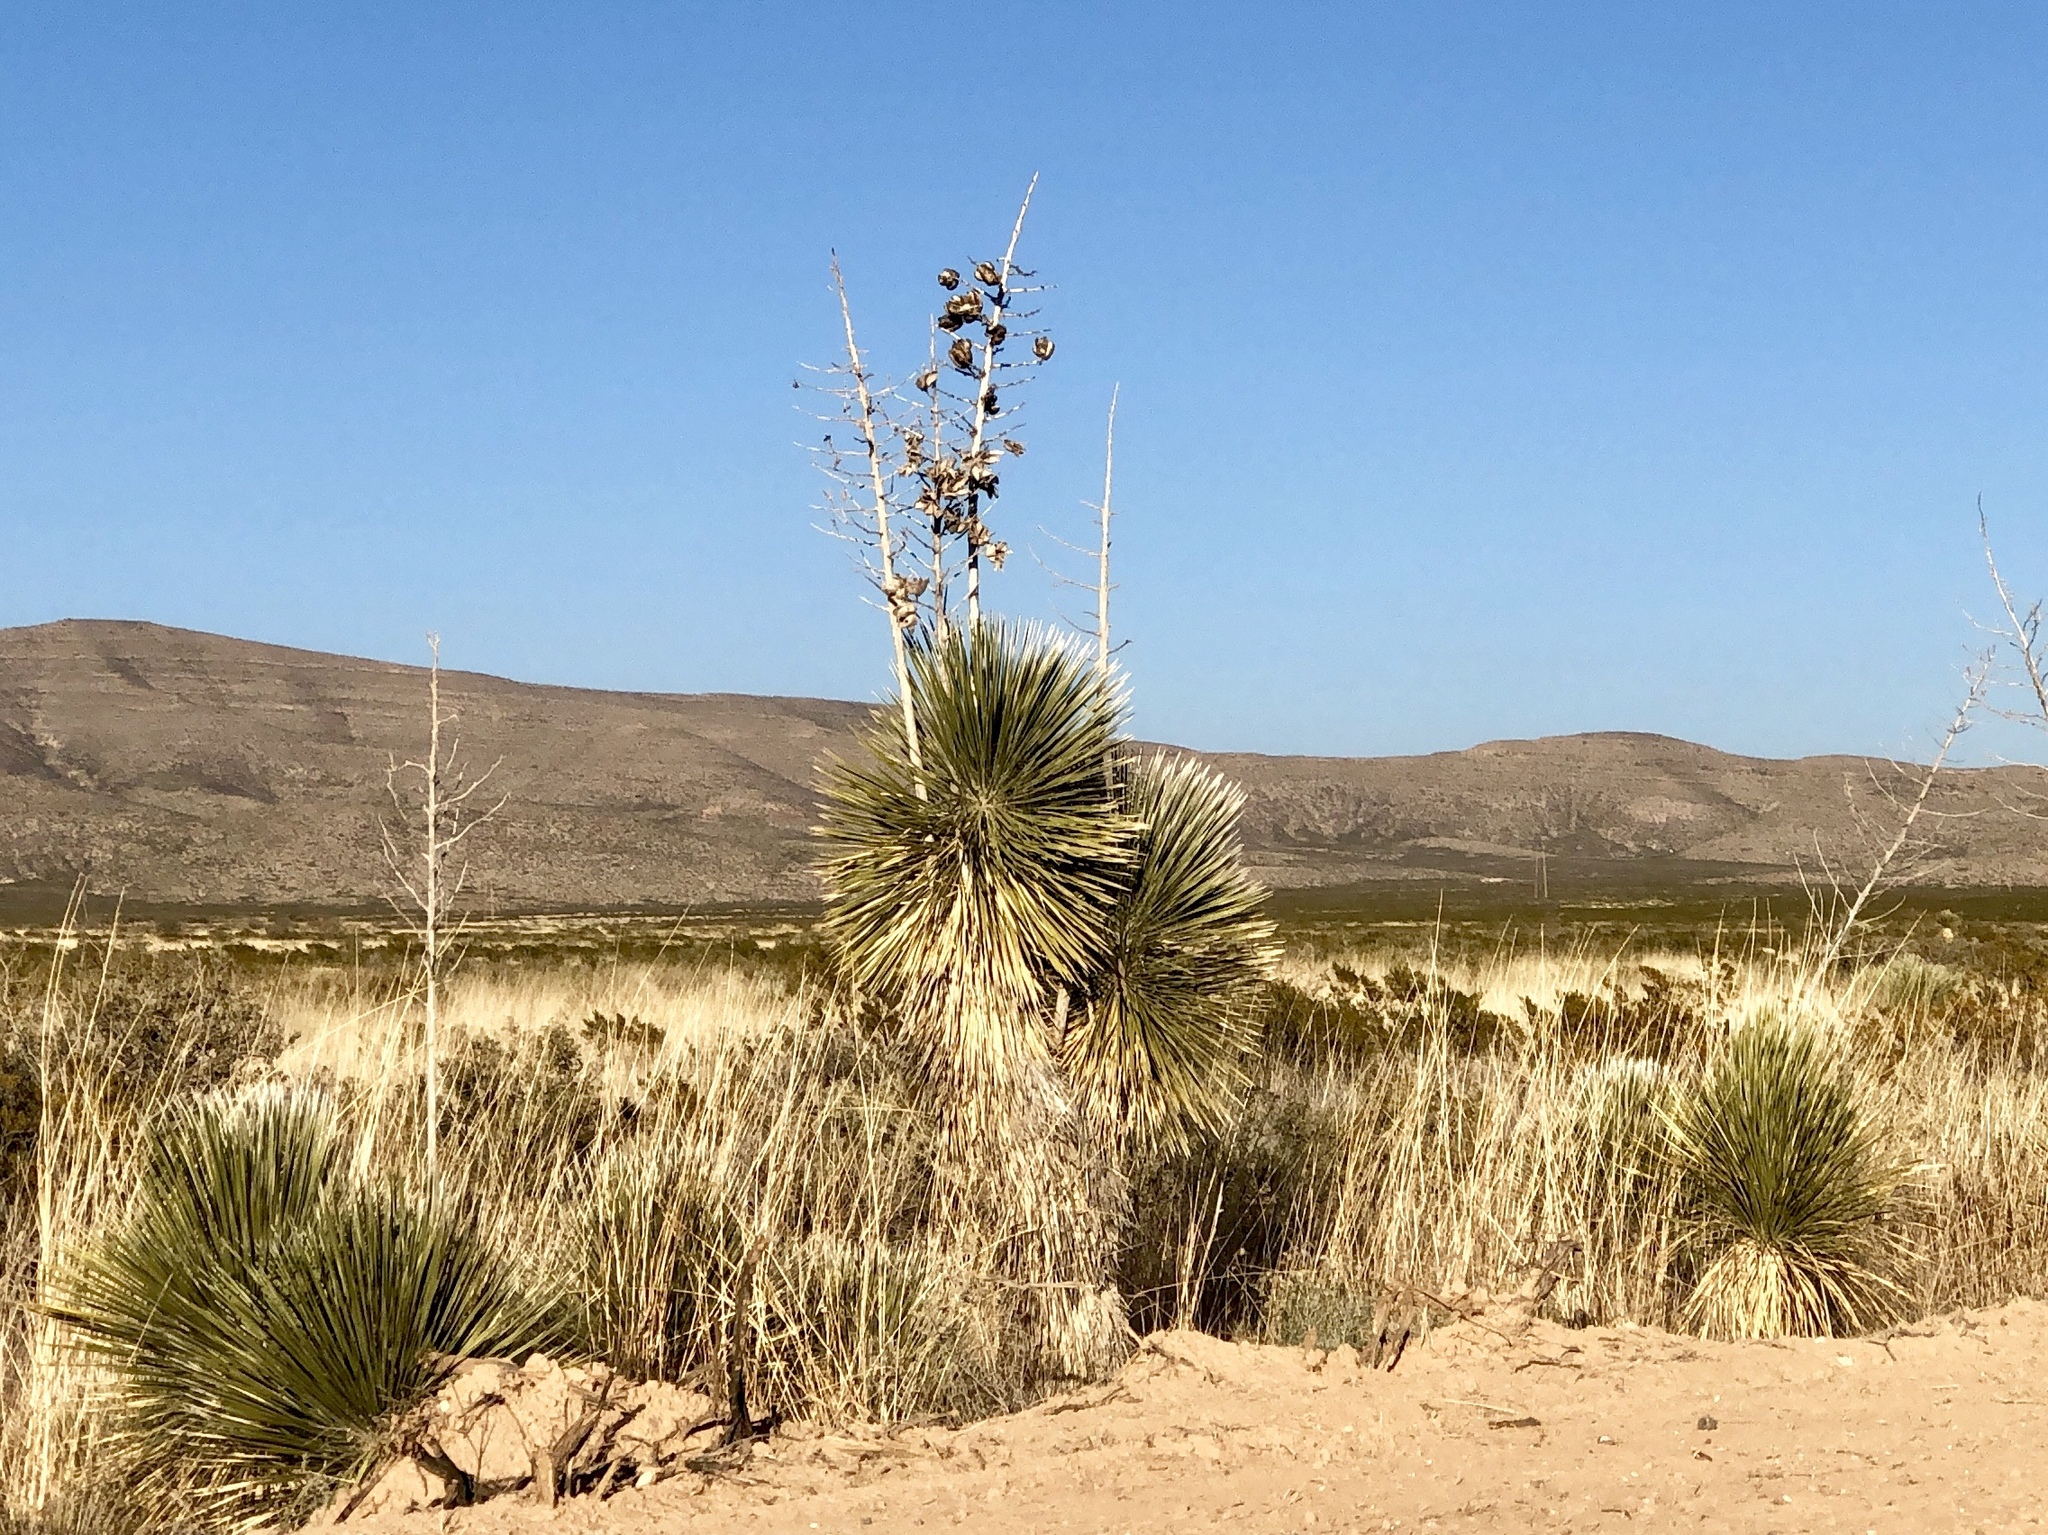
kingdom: Plantae
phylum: Tracheophyta
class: Liliopsida
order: Asparagales
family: Asparagaceae
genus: Yucca
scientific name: Yucca elata
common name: Palmella
